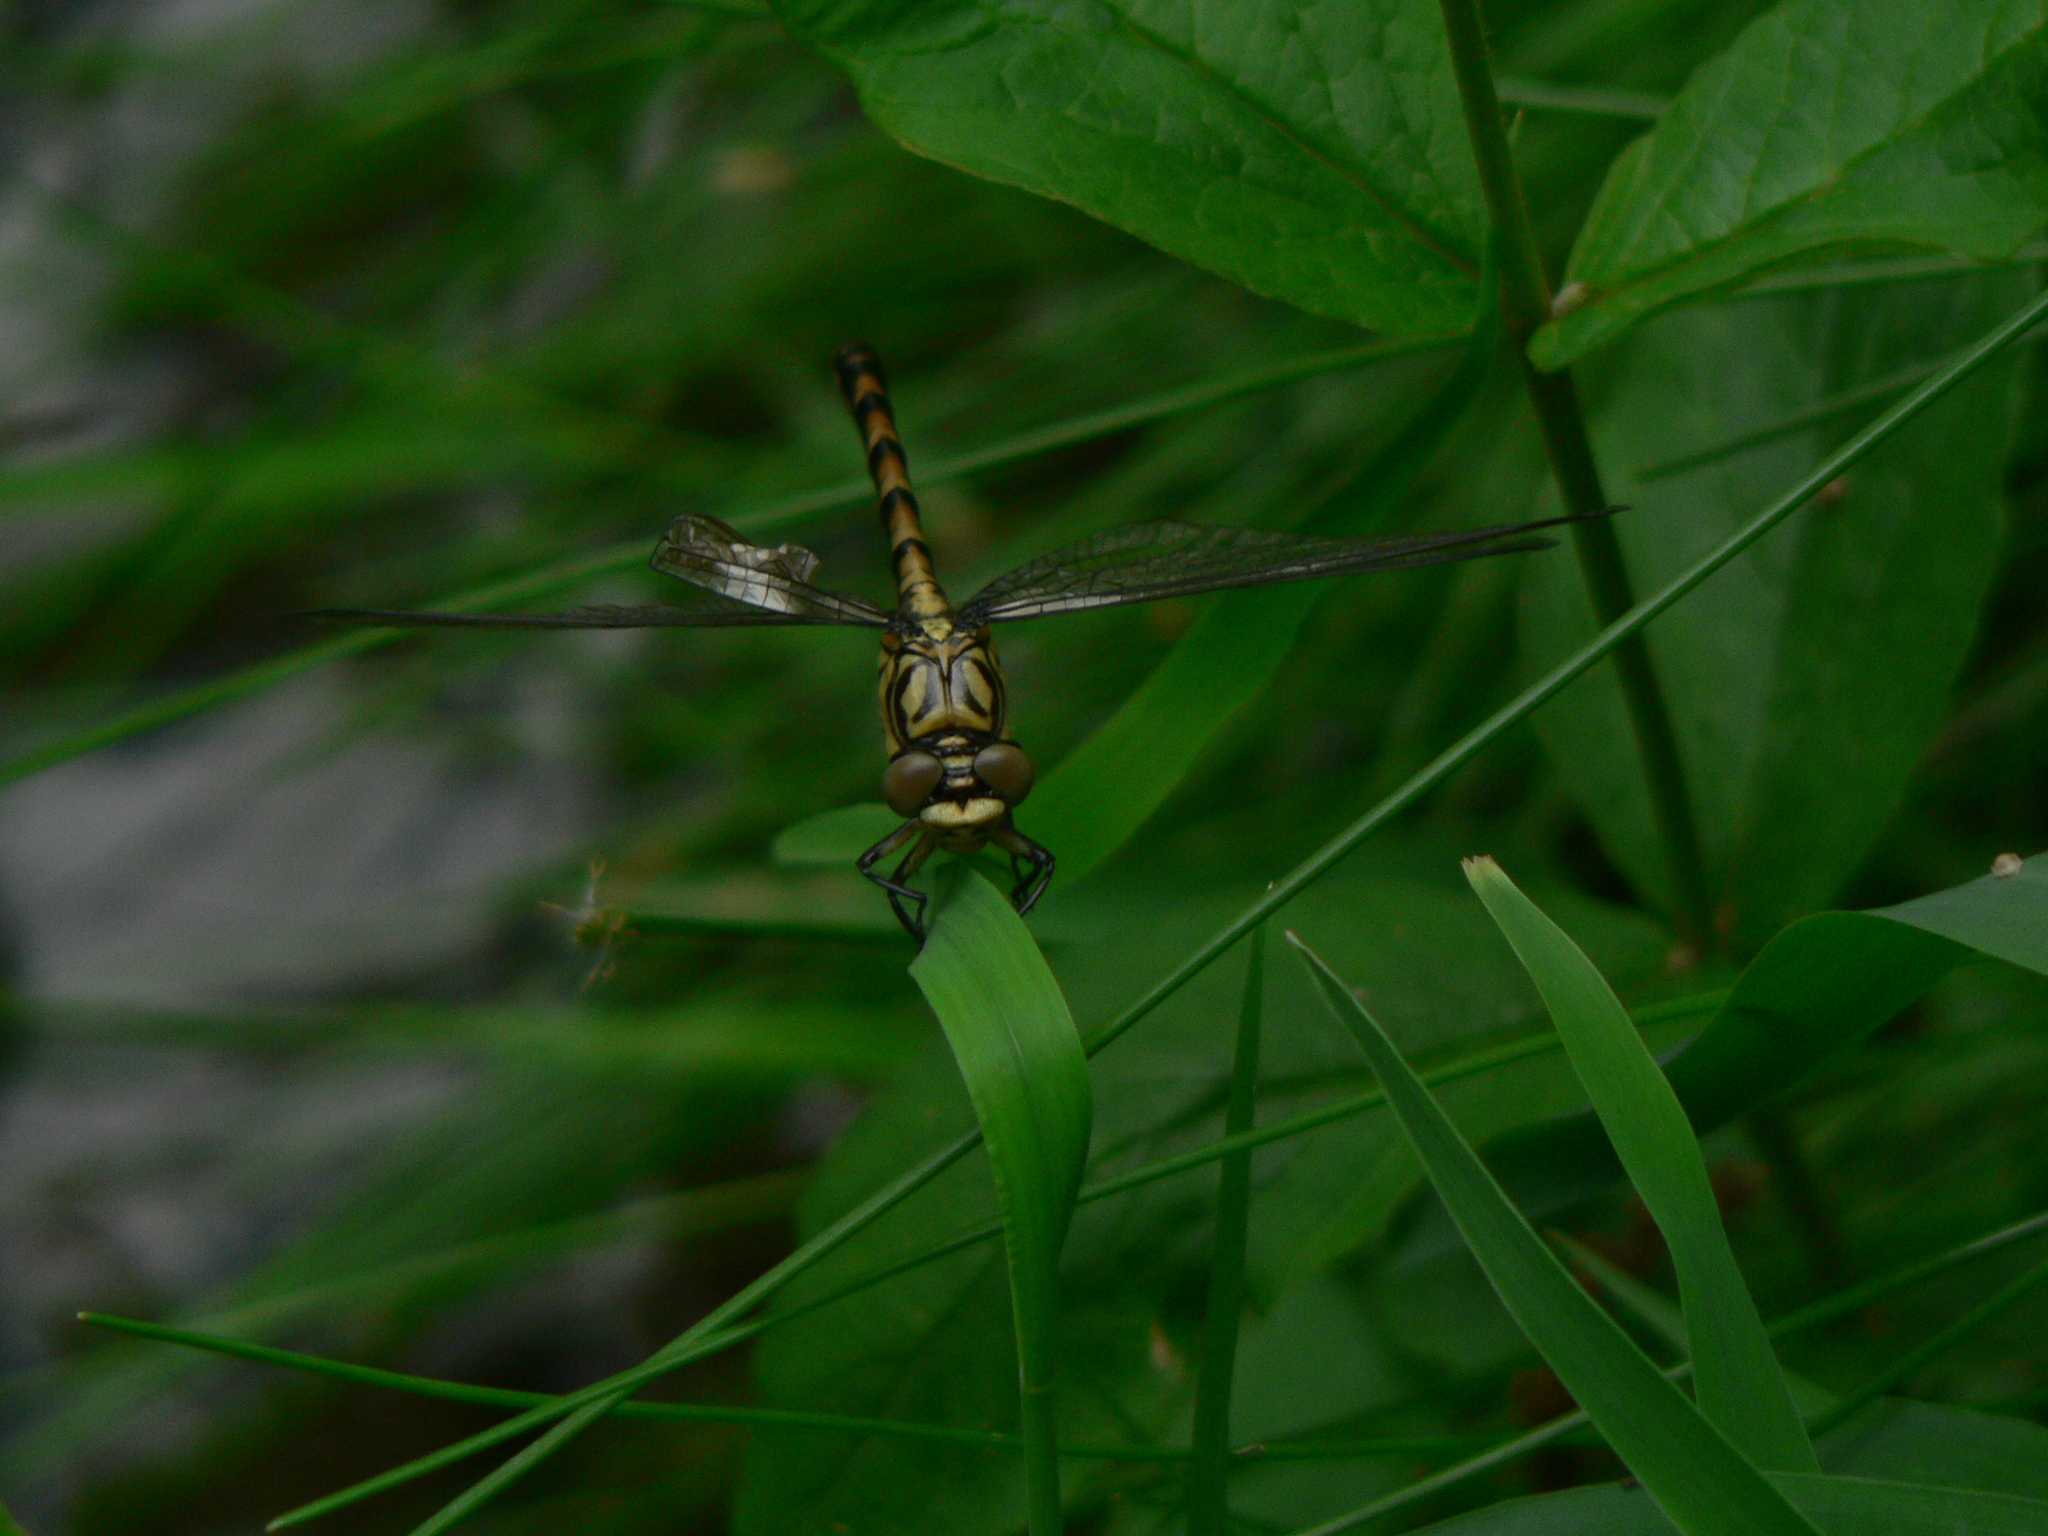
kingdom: Animalia
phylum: Arthropoda
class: Insecta
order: Odonata
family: Gomphidae
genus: Onychogomphus
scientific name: Onychogomphus forcipatus
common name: Small pincertail
